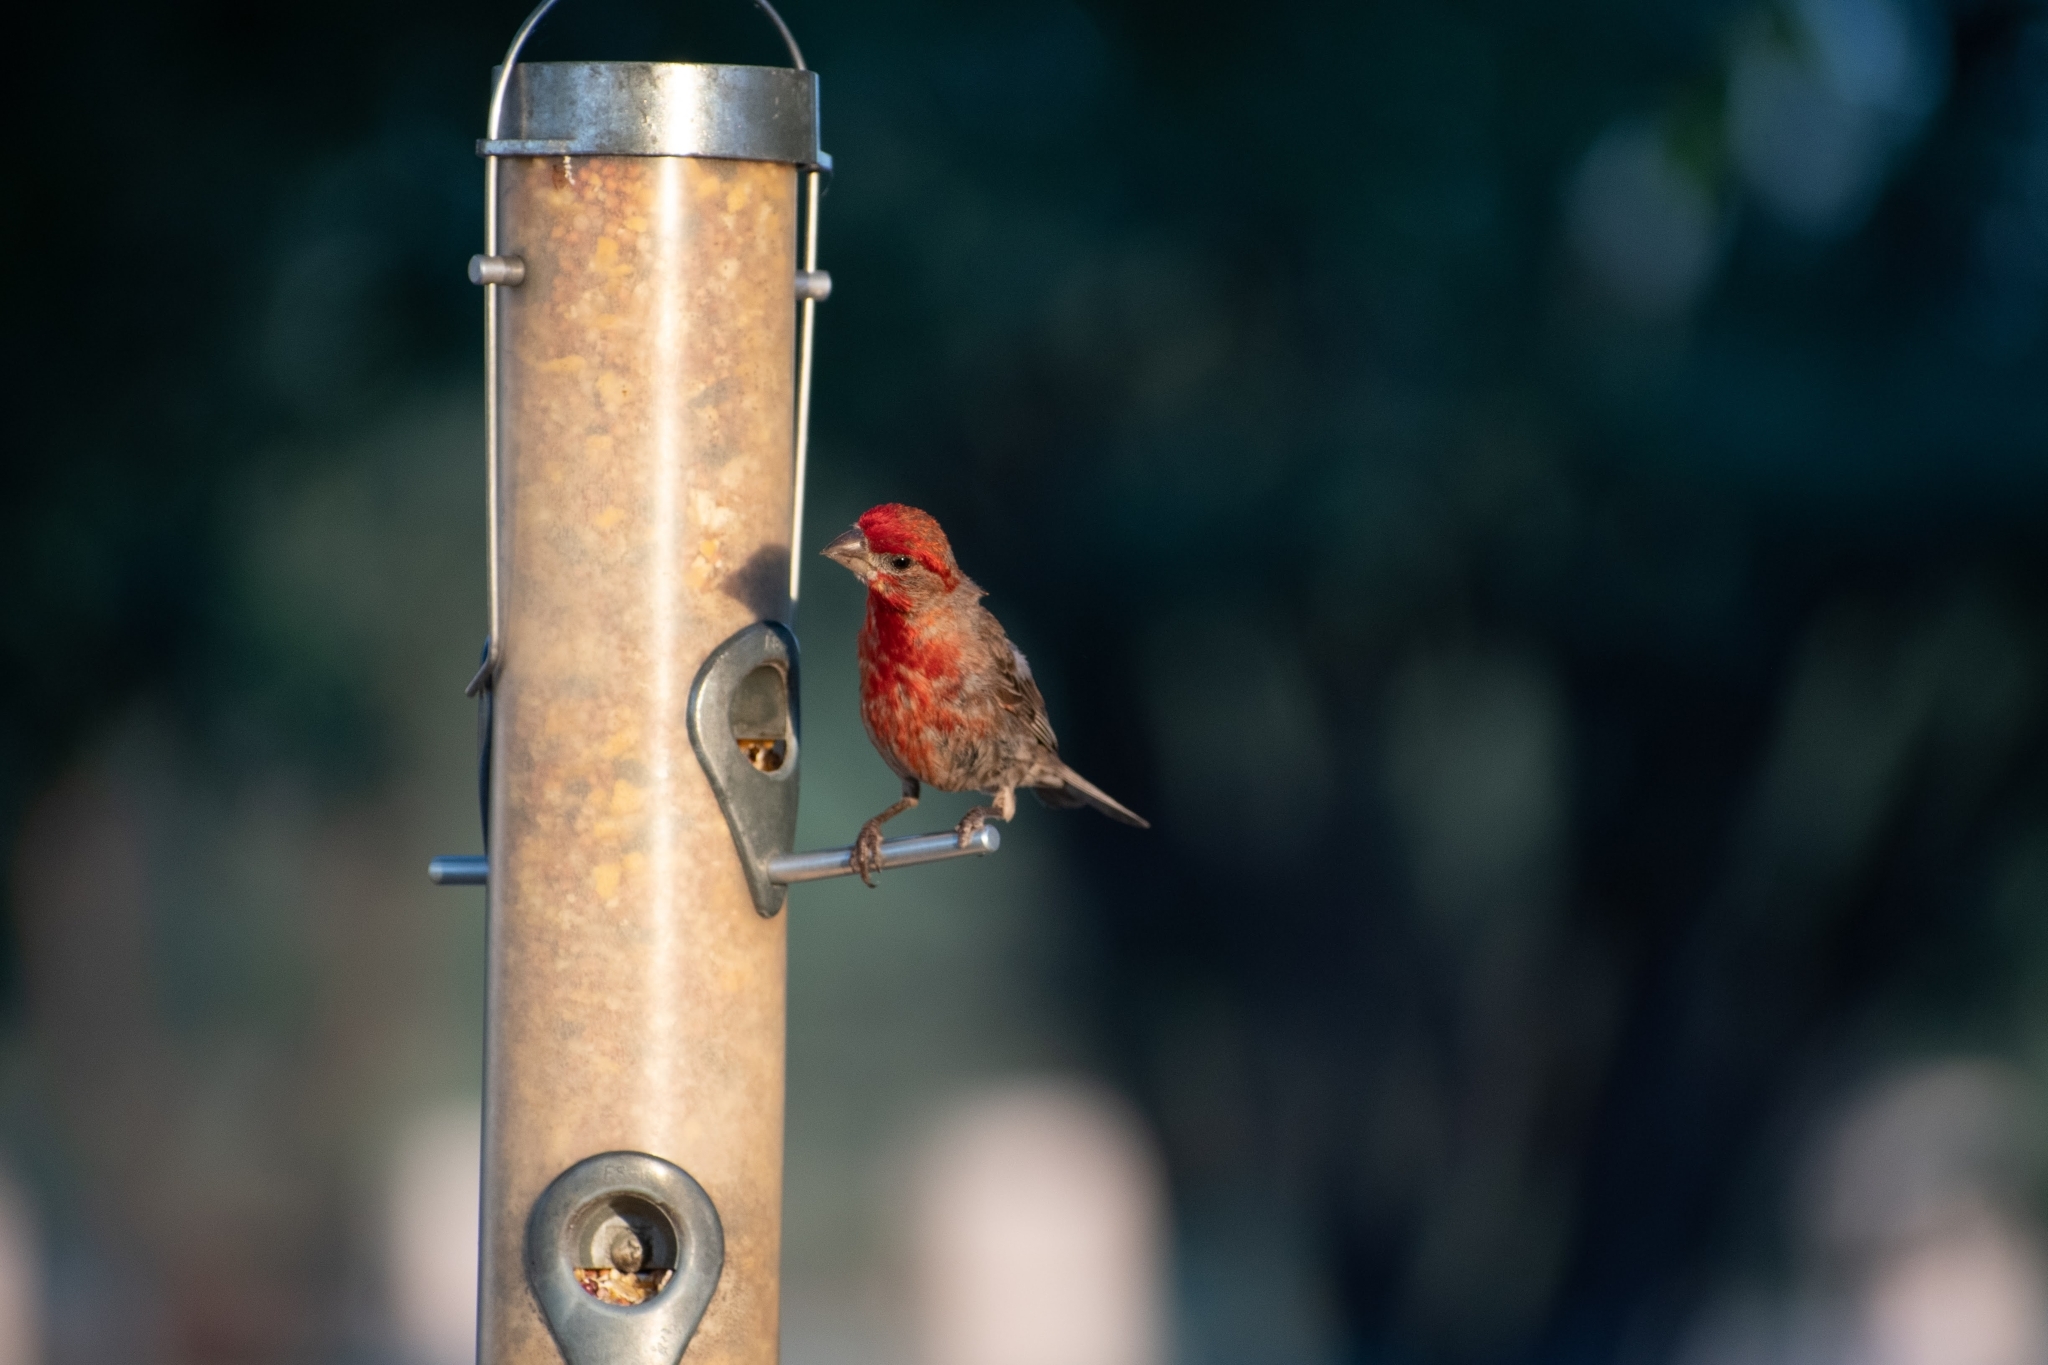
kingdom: Animalia
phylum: Chordata
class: Aves
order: Passeriformes
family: Fringillidae
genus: Haemorhous
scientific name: Haemorhous mexicanus
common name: House finch
